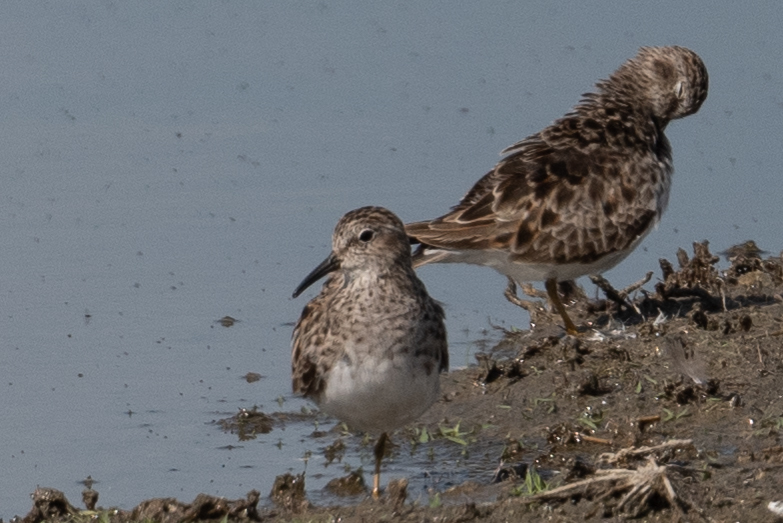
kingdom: Animalia
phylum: Chordata
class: Aves
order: Charadriiformes
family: Scolopacidae
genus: Calidris
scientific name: Calidris minutilla
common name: Least sandpiper
